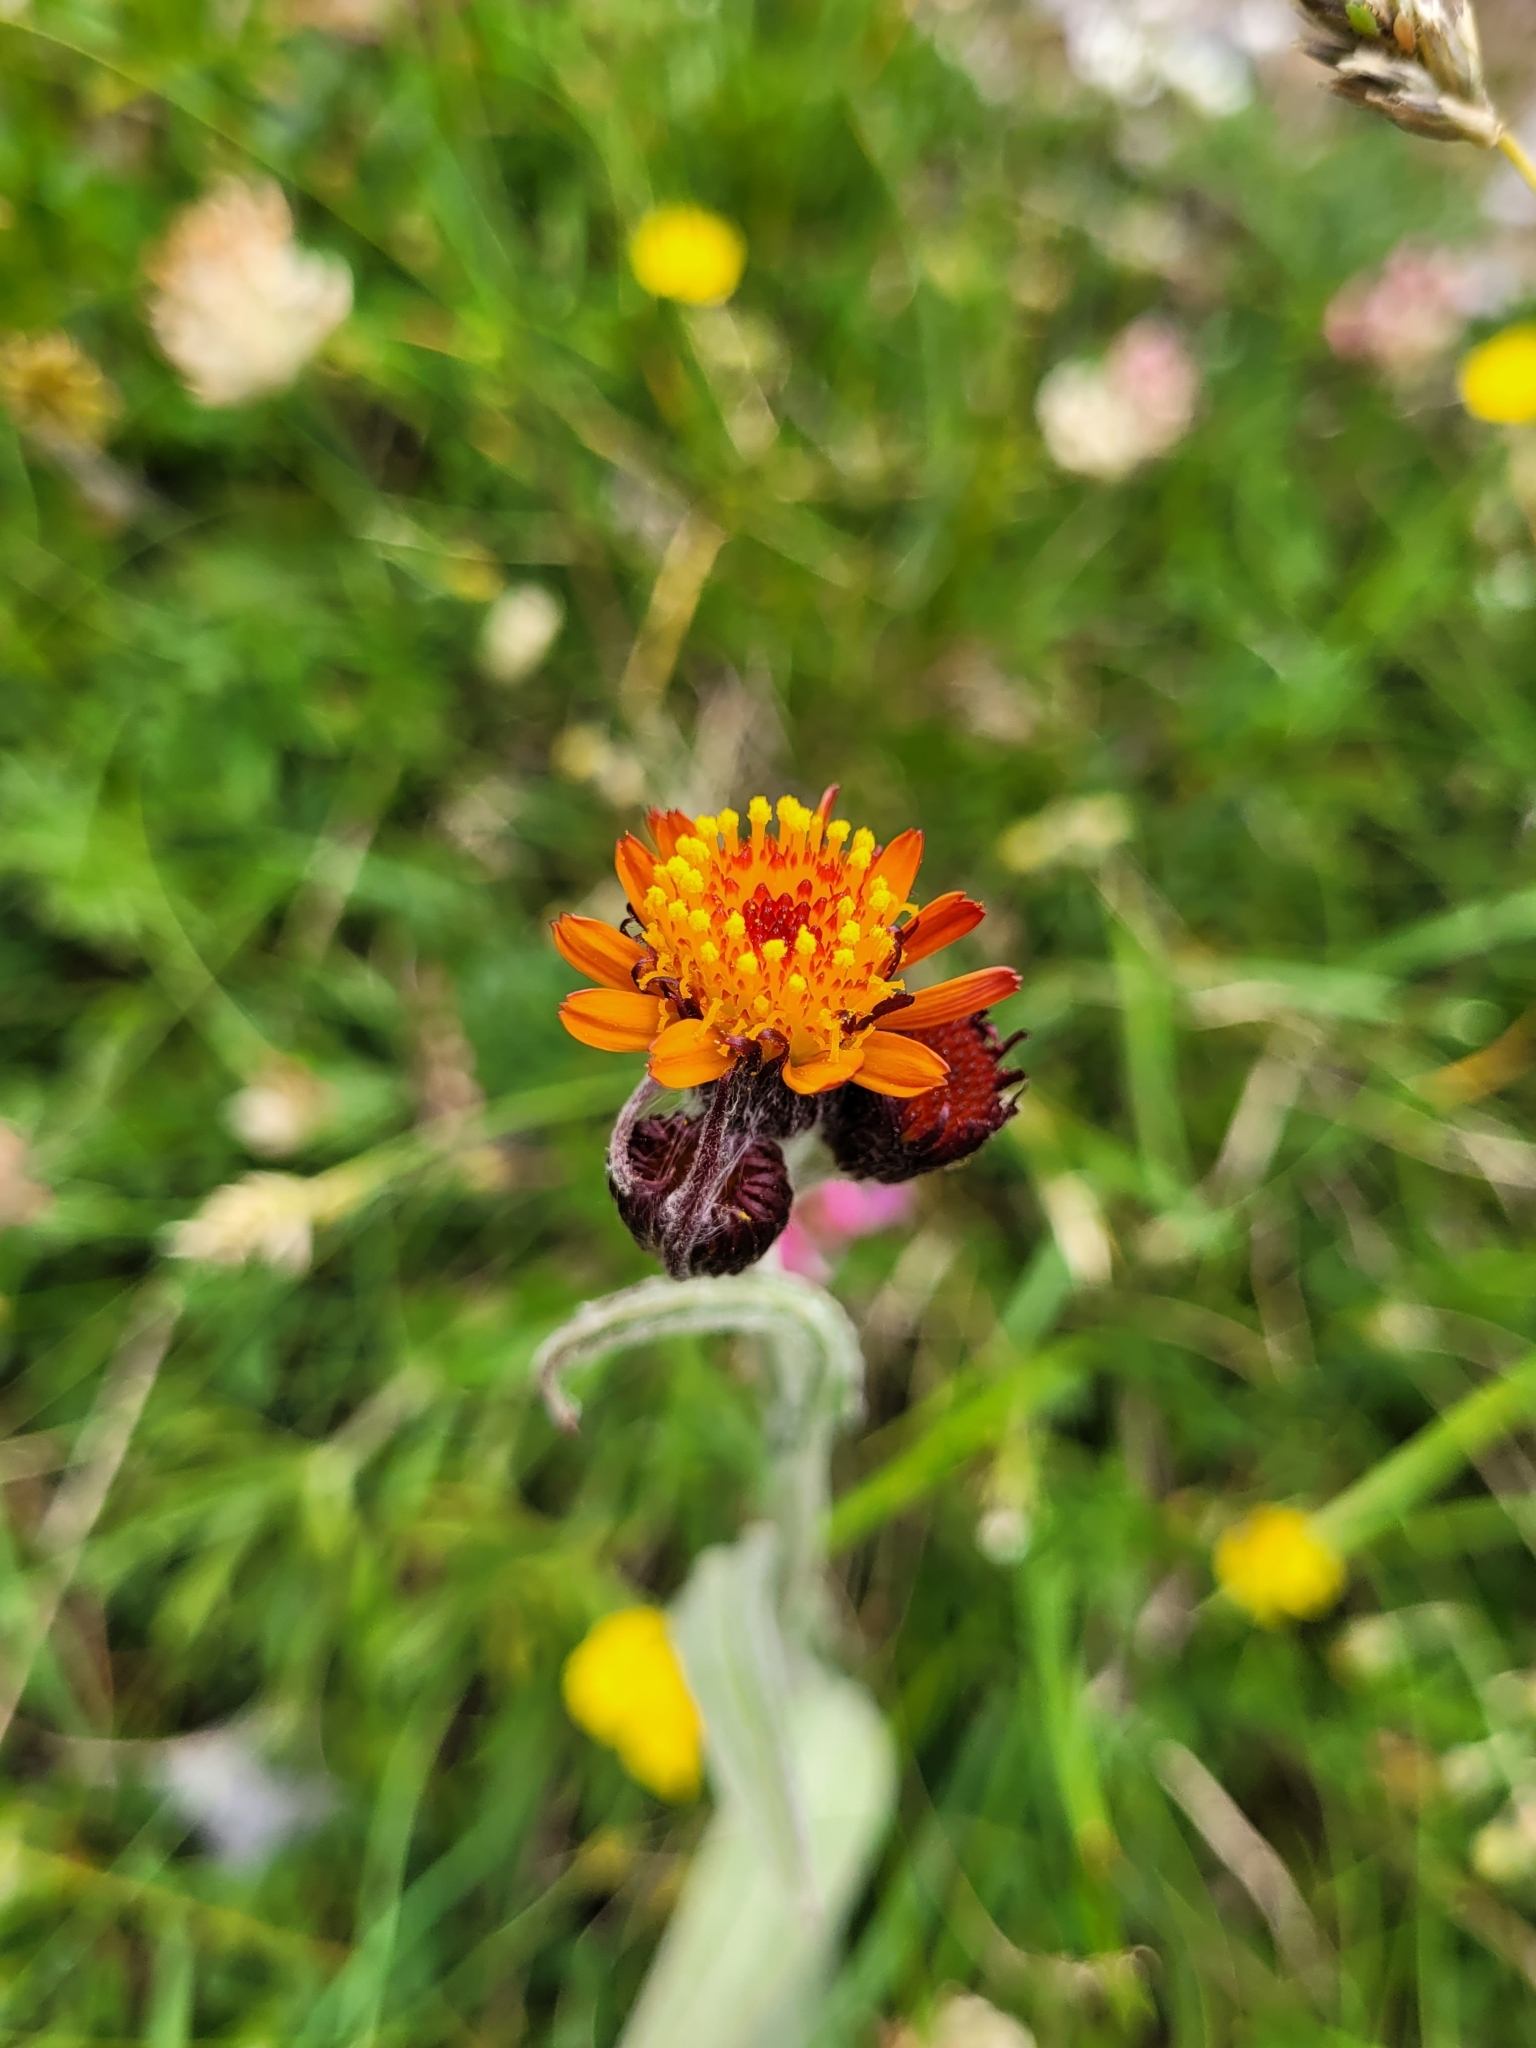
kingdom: Plantae
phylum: Tracheophyta
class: Magnoliopsida
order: Asterales
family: Asteraceae
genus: Pilosella
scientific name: Pilosella aurantiaca
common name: Fox-and-cubs
